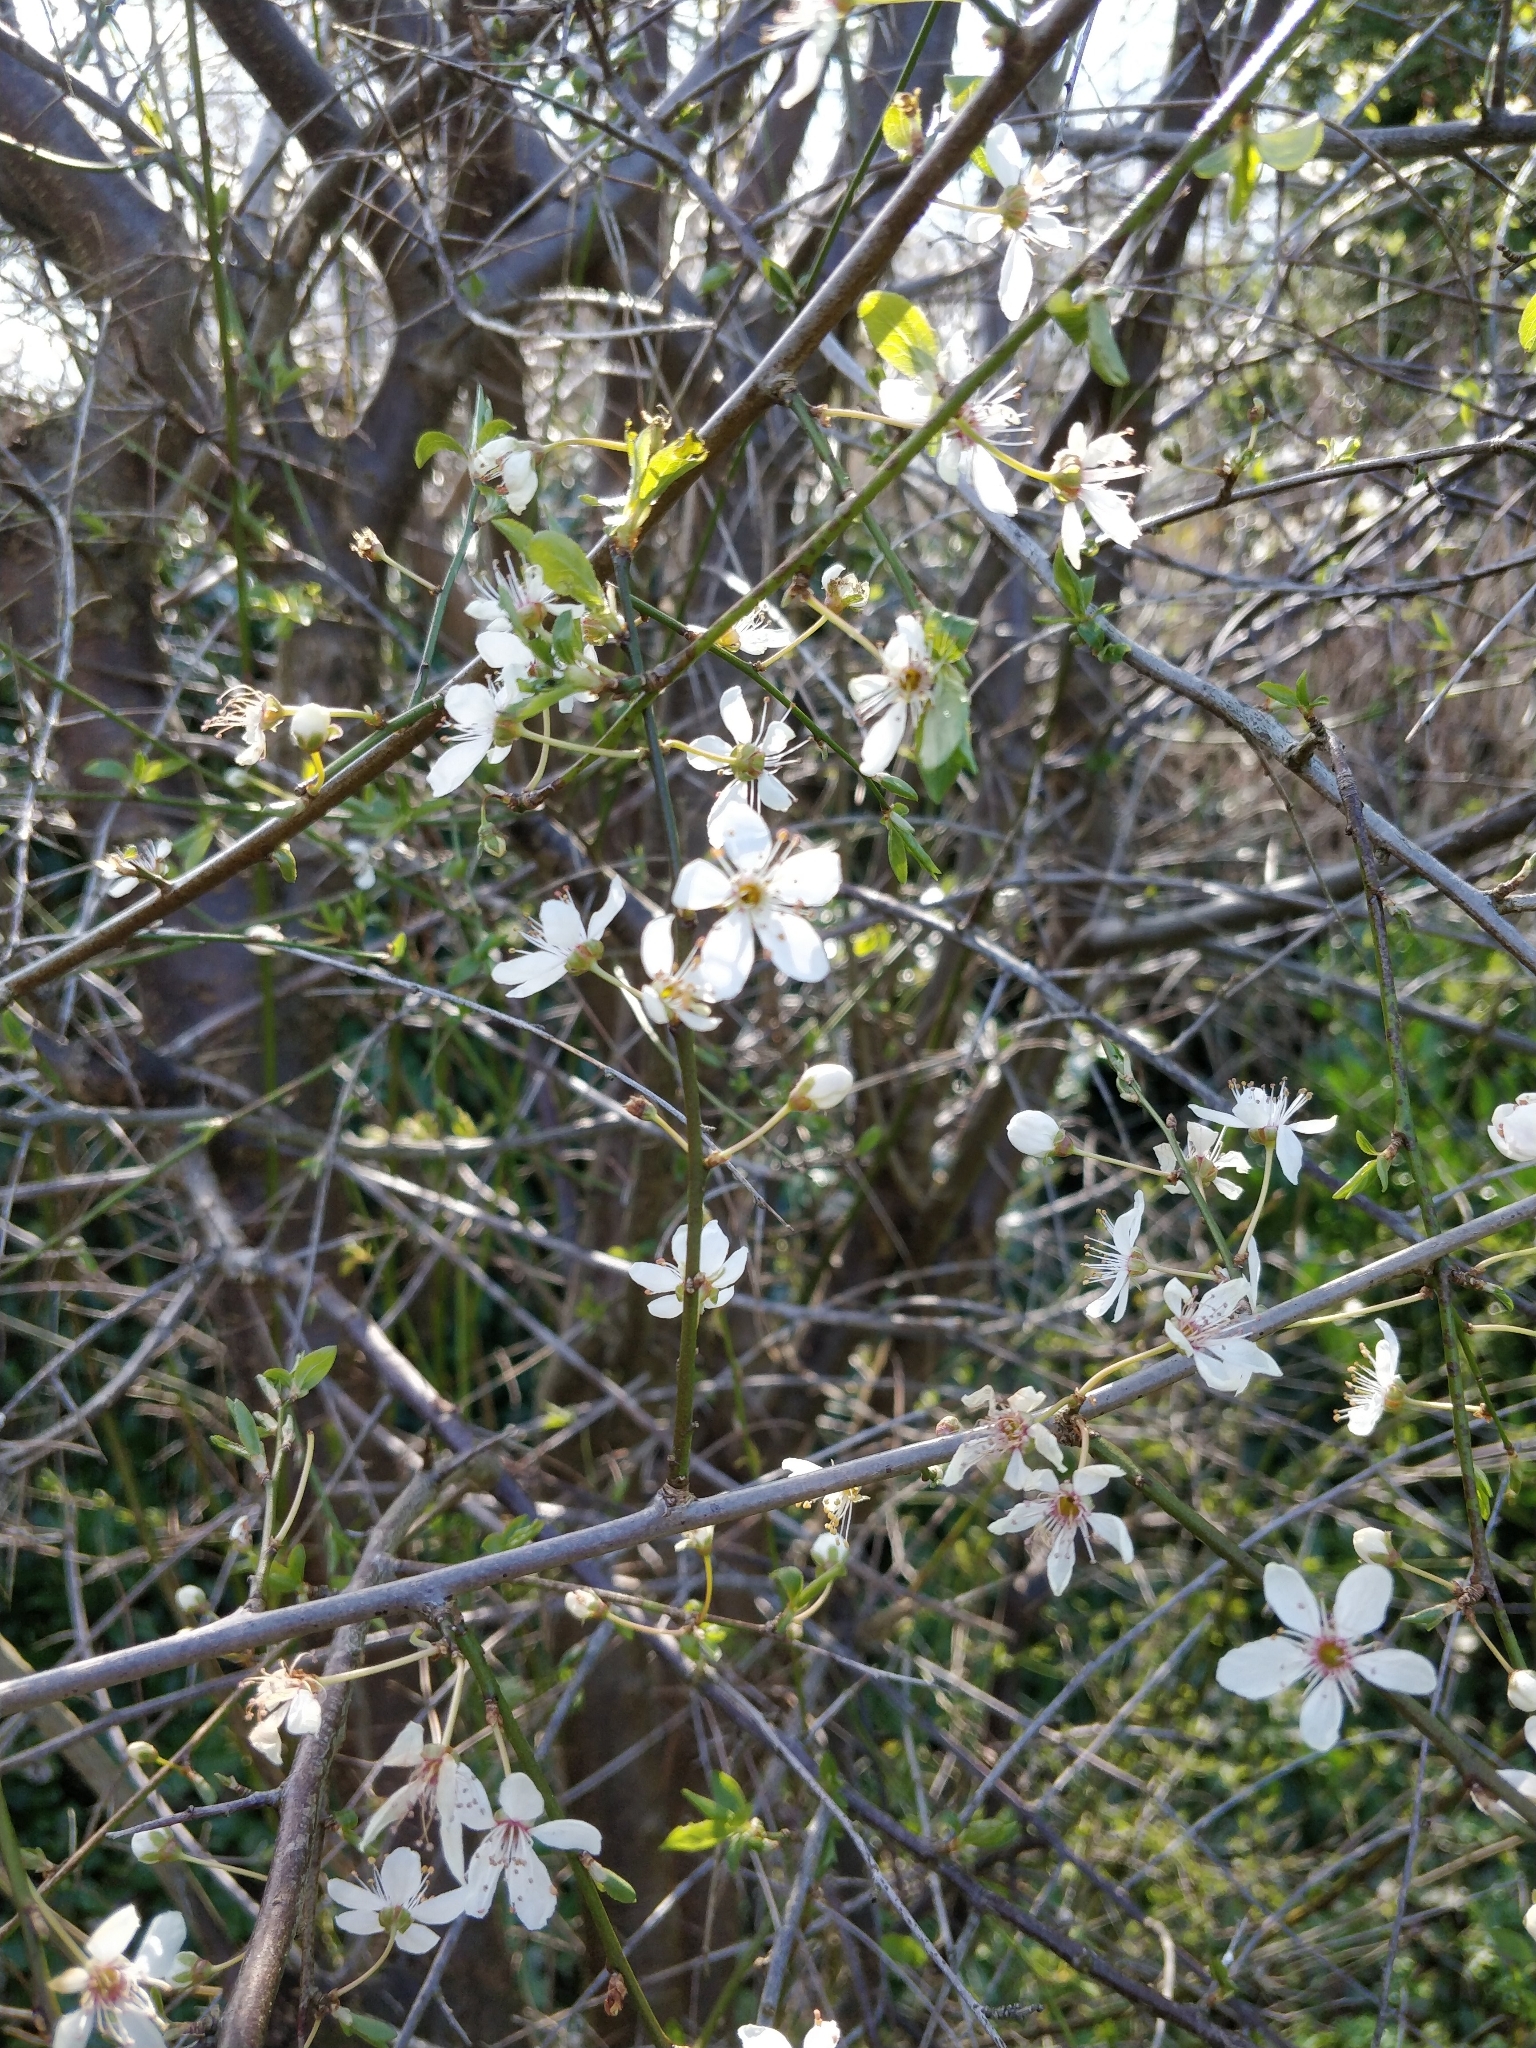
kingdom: Plantae
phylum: Tracheophyta
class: Magnoliopsida
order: Rosales
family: Rosaceae
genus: Prunus
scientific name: Prunus cerasifera
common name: Cherry plum
